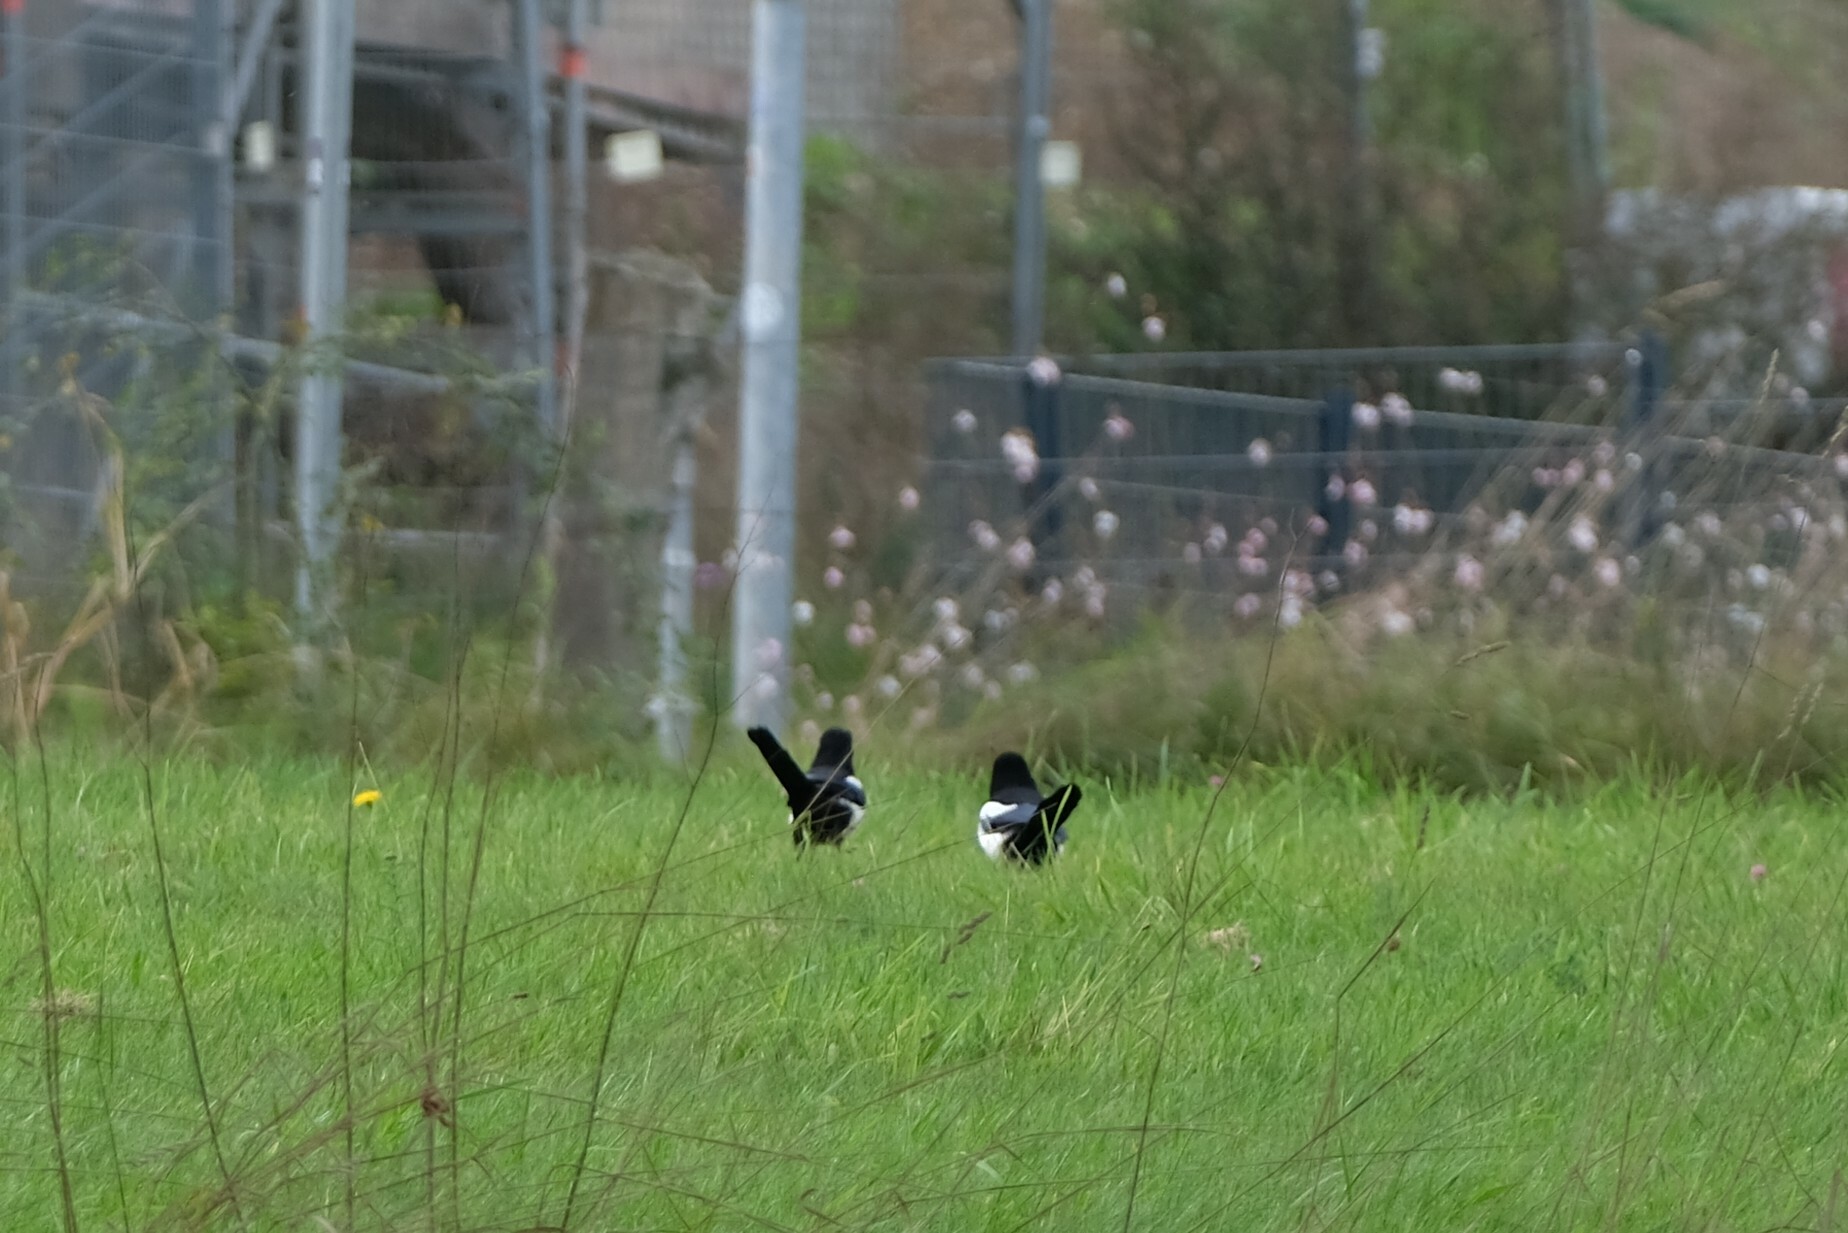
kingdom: Animalia
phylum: Chordata
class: Aves
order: Passeriformes
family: Corvidae
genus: Pica
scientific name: Pica pica
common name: Eurasian magpie
